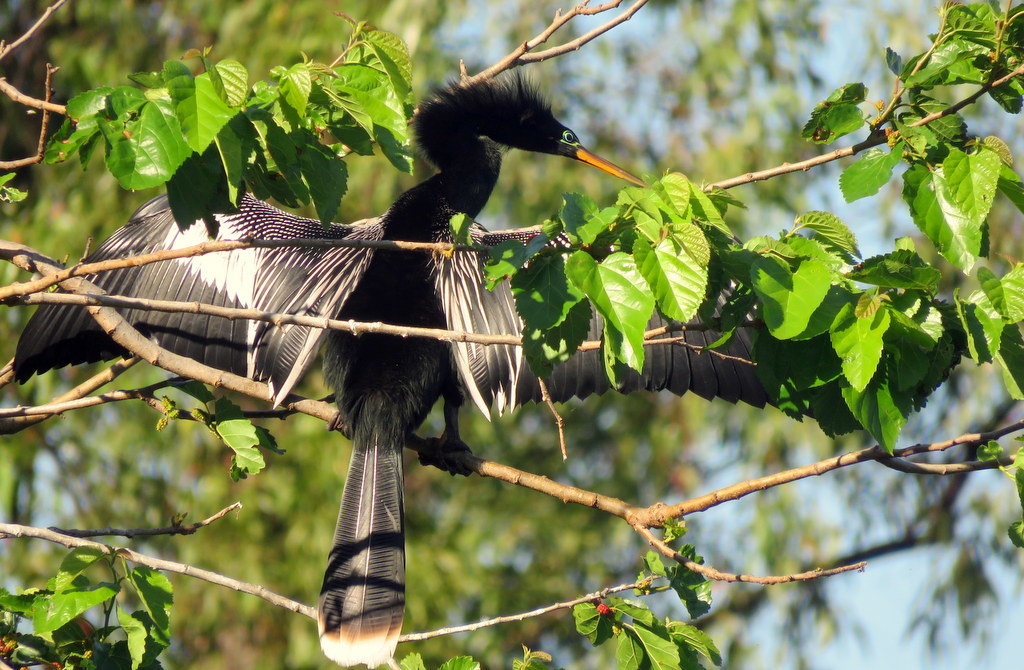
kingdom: Animalia
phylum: Chordata
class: Aves
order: Suliformes
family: Anhingidae
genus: Anhinga
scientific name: Anhinga anhinga
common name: Anhinga
